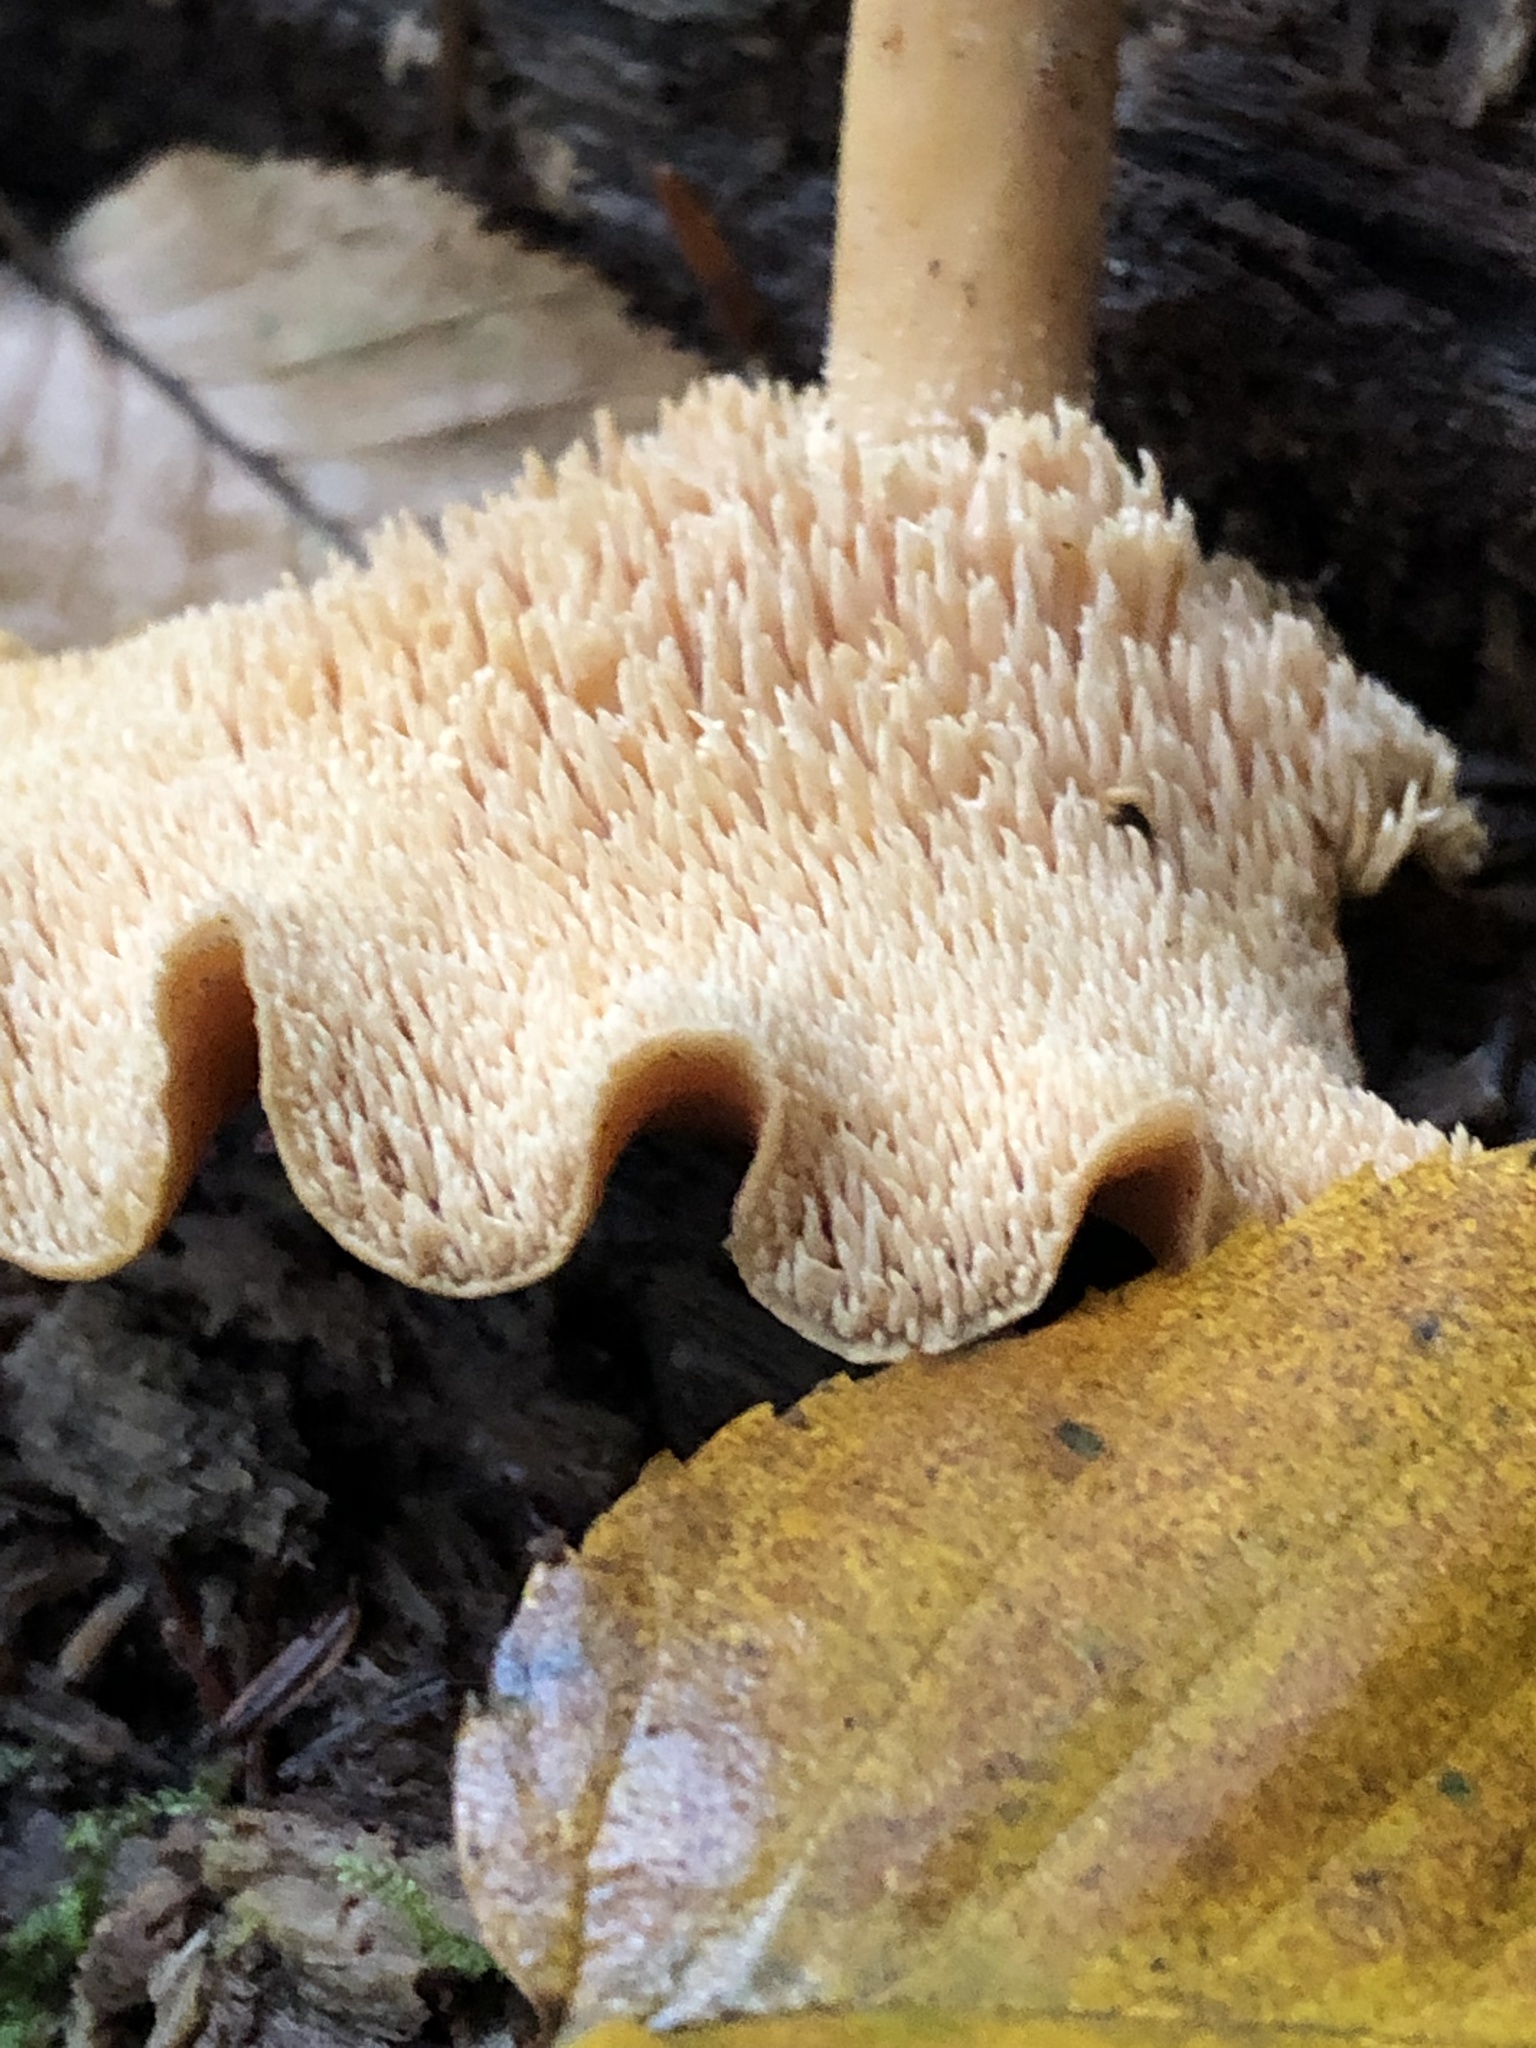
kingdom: Fungi
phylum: Basidiomycota
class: Agaricomycetes
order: Cantharellales
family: Hydnaceae
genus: Hydnum
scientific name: Hydnum umbilicatum
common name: Umbilicate hedgehog
